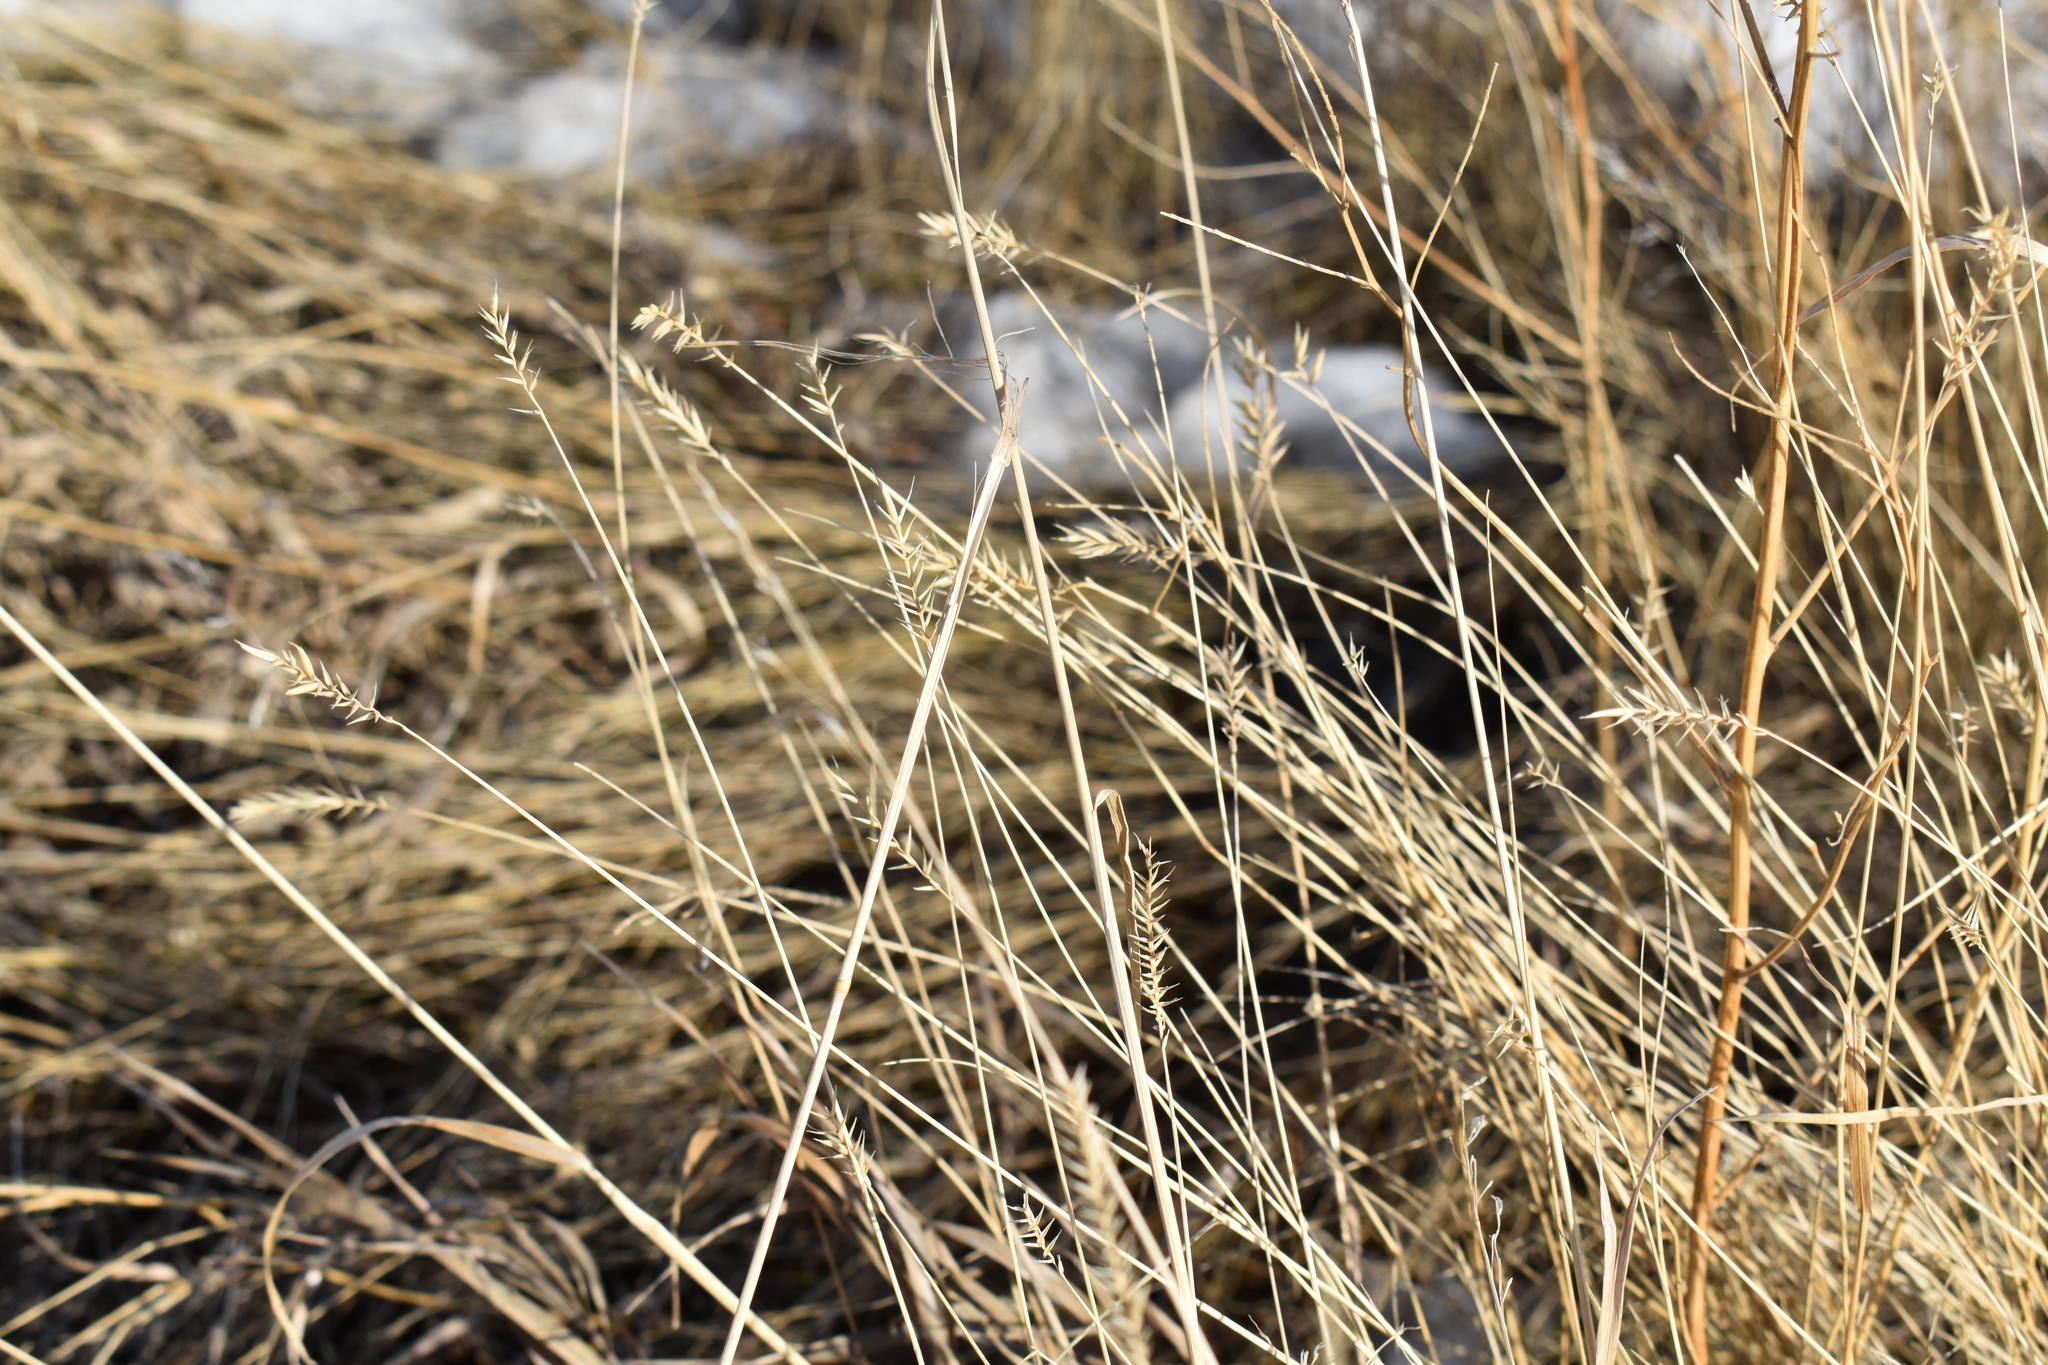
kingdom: Plantae
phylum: Tracheophyta
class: Liliopsida
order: Poales
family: Poaceae
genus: Agropyron
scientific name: Agropyron cristatum
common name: Crested wheatgrass
